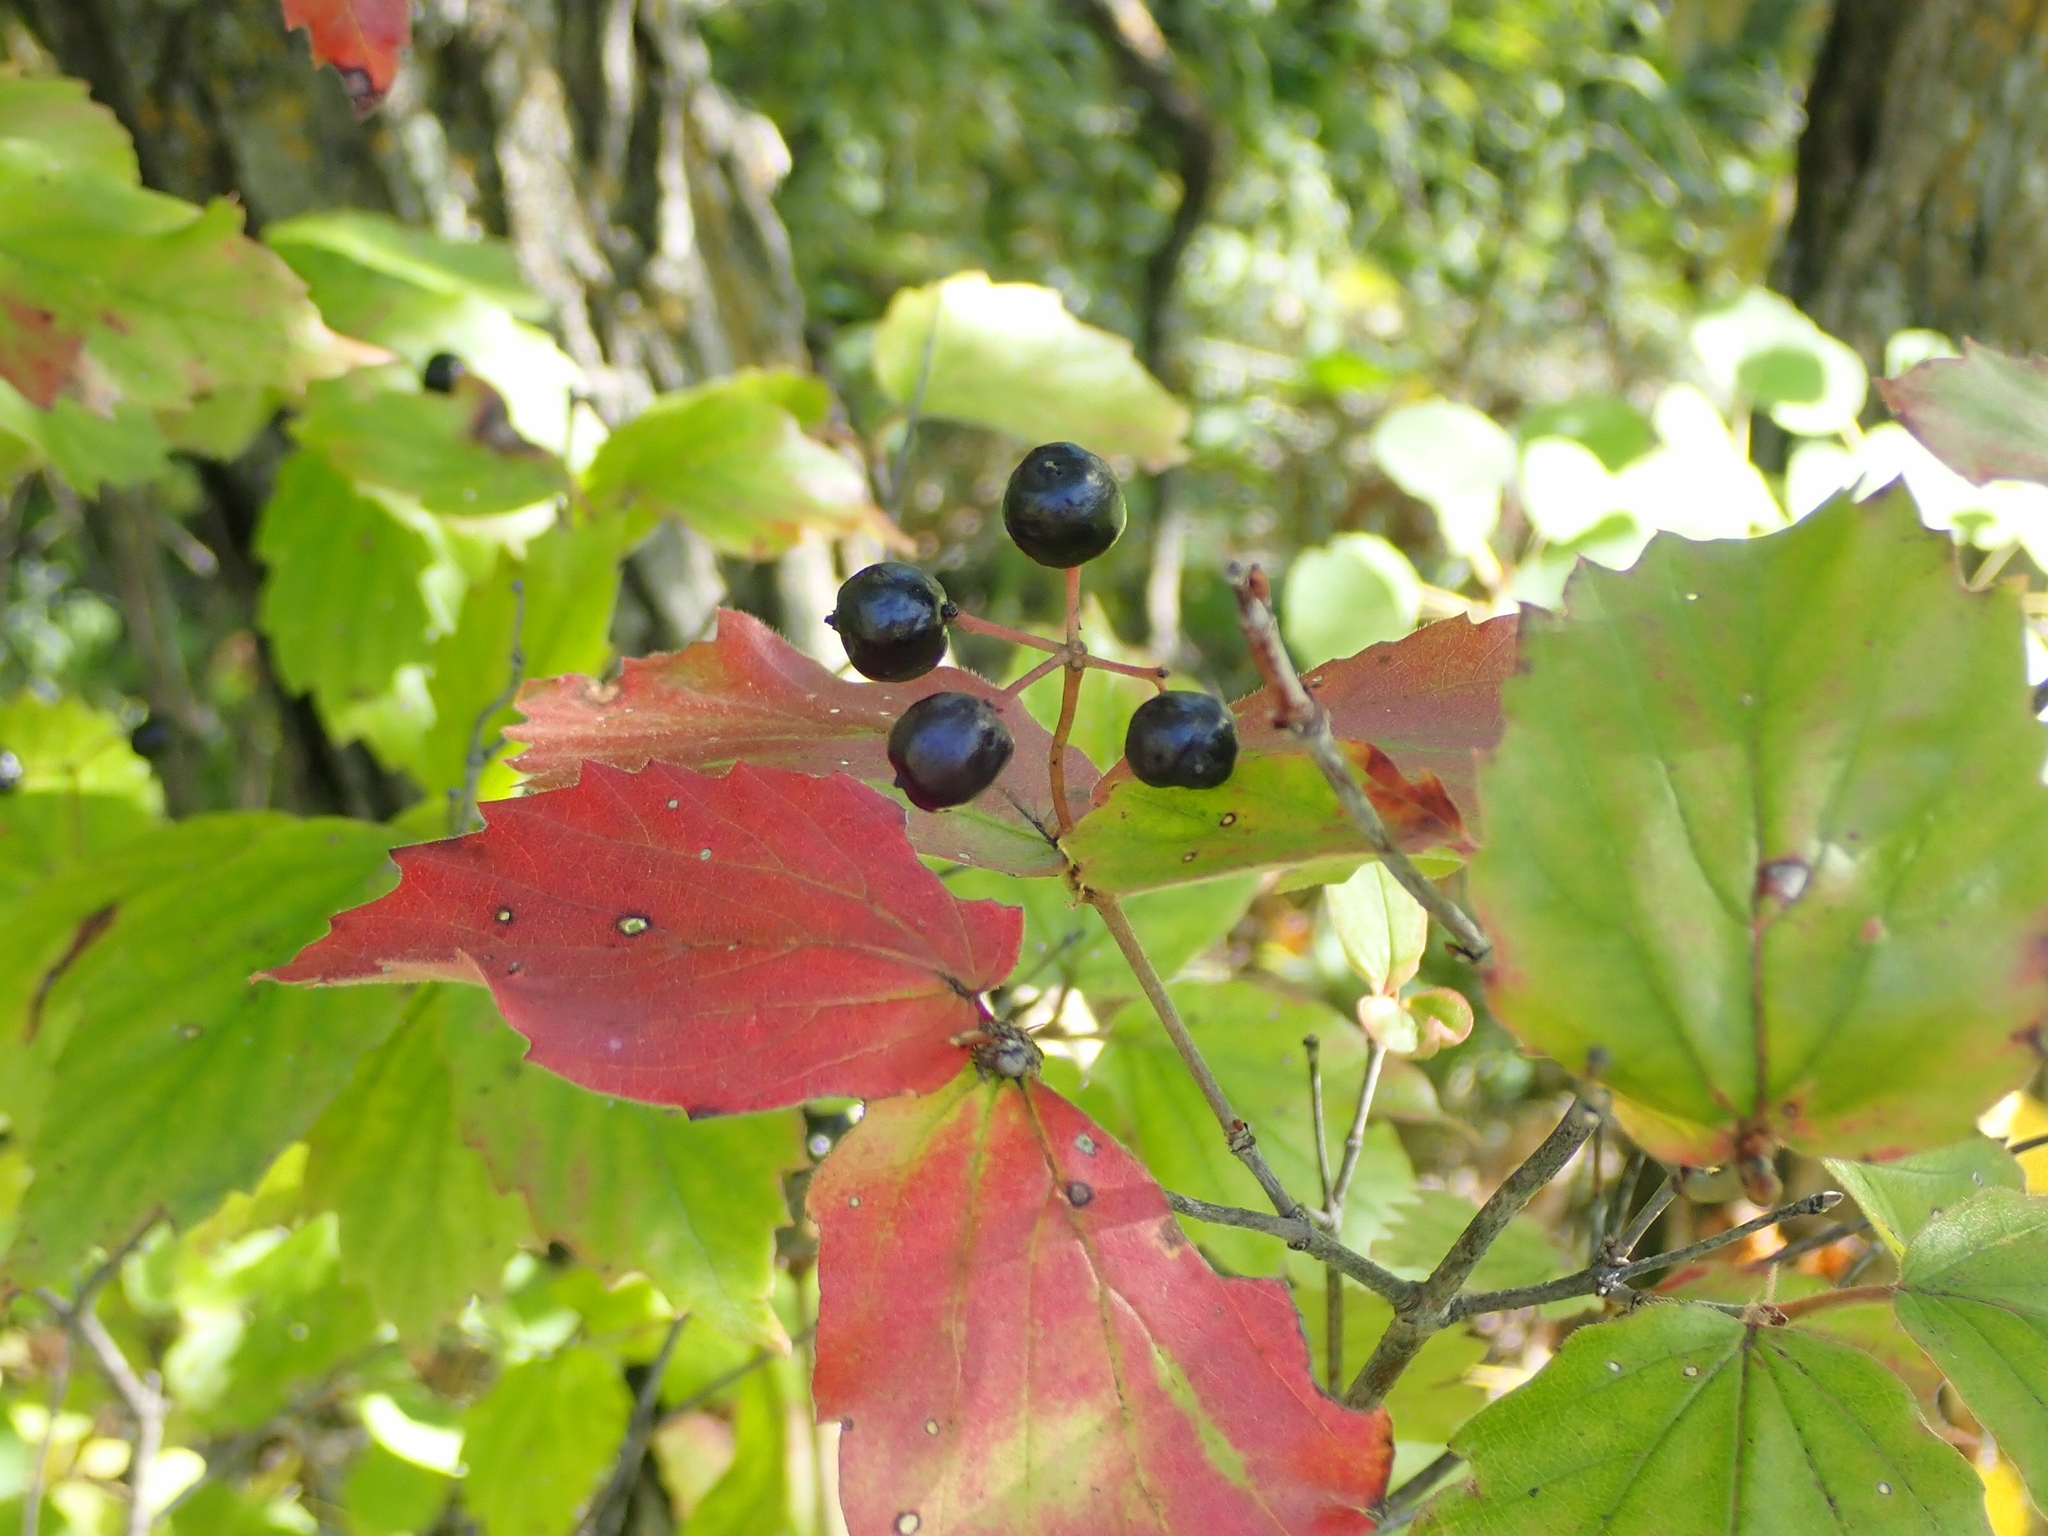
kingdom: Plantae
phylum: Tracheophyta
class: Magnoliopsida
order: Dipsacales
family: Viburnaceae
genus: Viburnum
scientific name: Viburnum rafinesqueanum
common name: Downy arrow-wood
